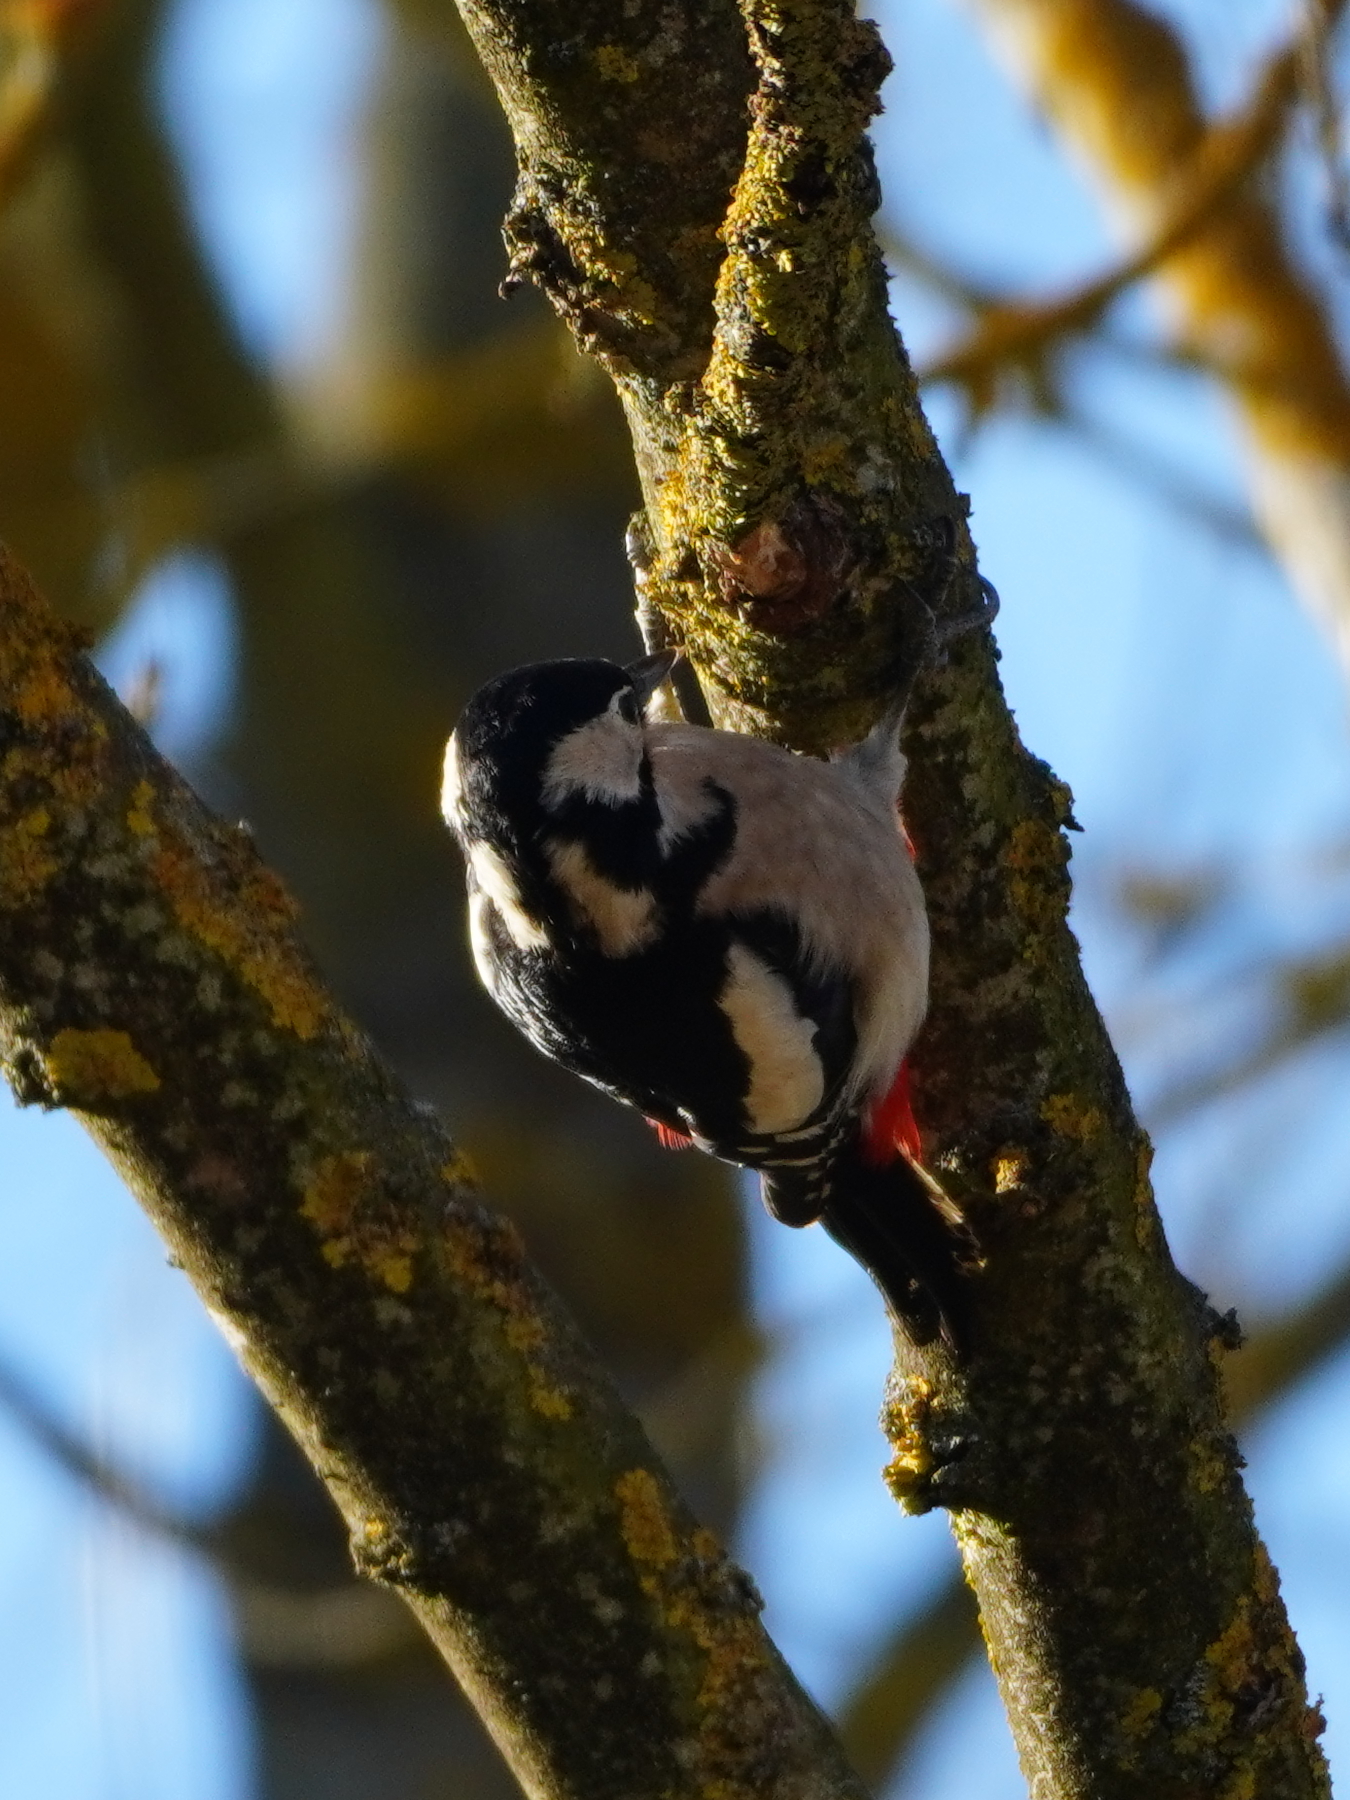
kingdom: Animalia
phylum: Chordata
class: Aves
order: Piciformes
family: Picidae
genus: Dendrocopos
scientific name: Dendrocopos major
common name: Great spotted woodpecker
